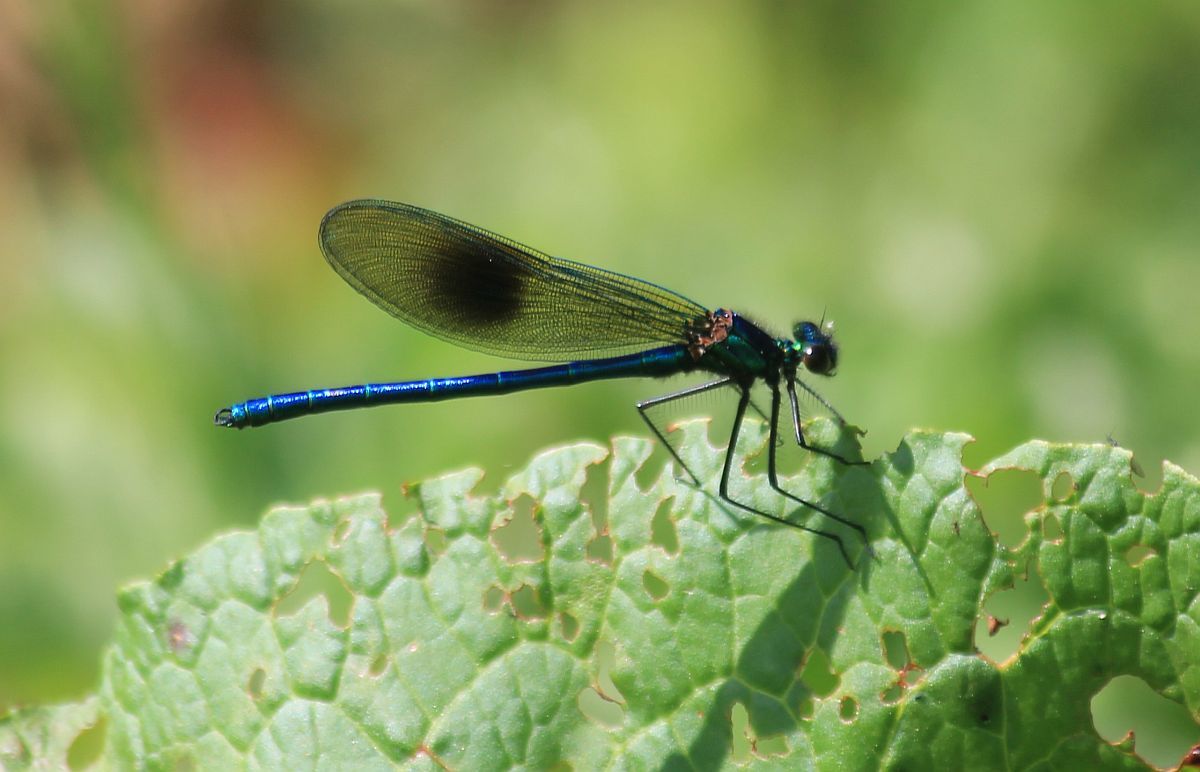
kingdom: Animalia
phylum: Arthropoda
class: Insecta
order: Odonata
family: Calopterygidae
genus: Calopteryx
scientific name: Calopteryx splendens
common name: Banded demoiselle
